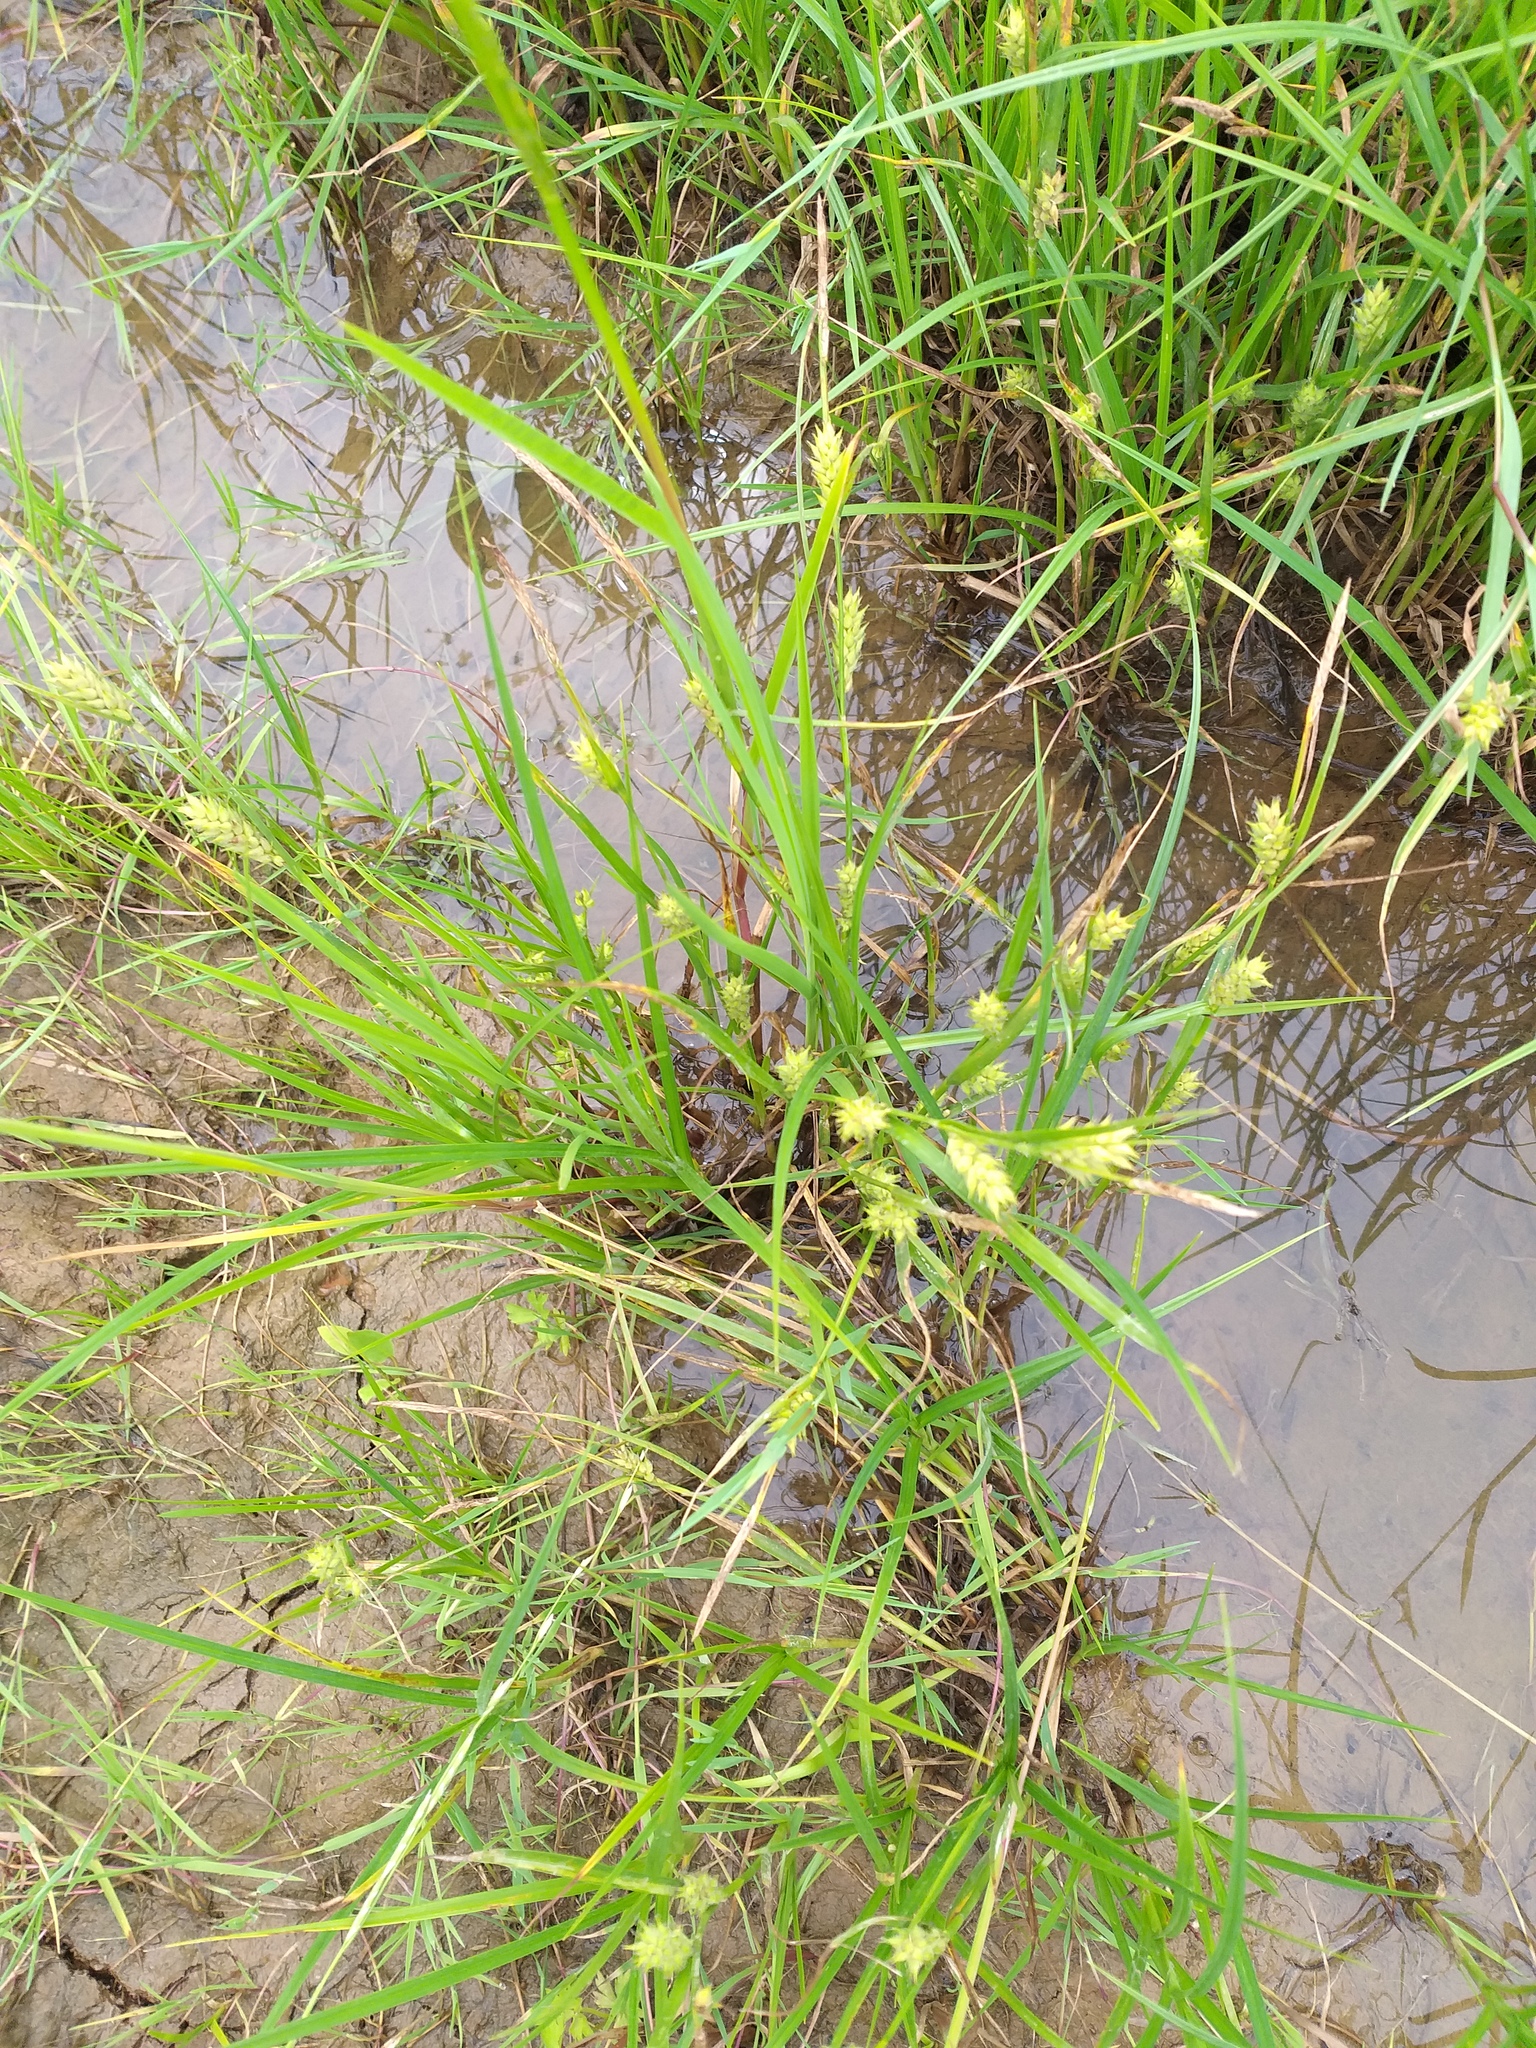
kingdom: Plantae
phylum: Tracheophyta
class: Liliopsida
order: Poales
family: Cyperaceae
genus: Carex
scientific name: Carex hirta
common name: Hairy sedge
